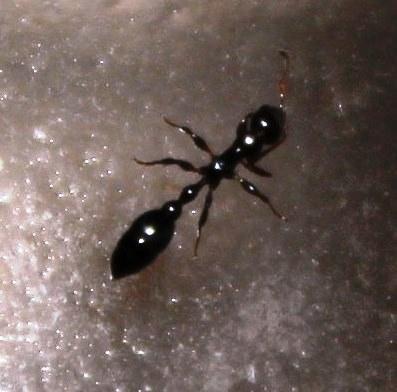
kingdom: Animalia
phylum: Arthropoda
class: Insecta
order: Hymenoptera
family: Formicidae
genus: Tetraponera
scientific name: Tetraponera clypeata
